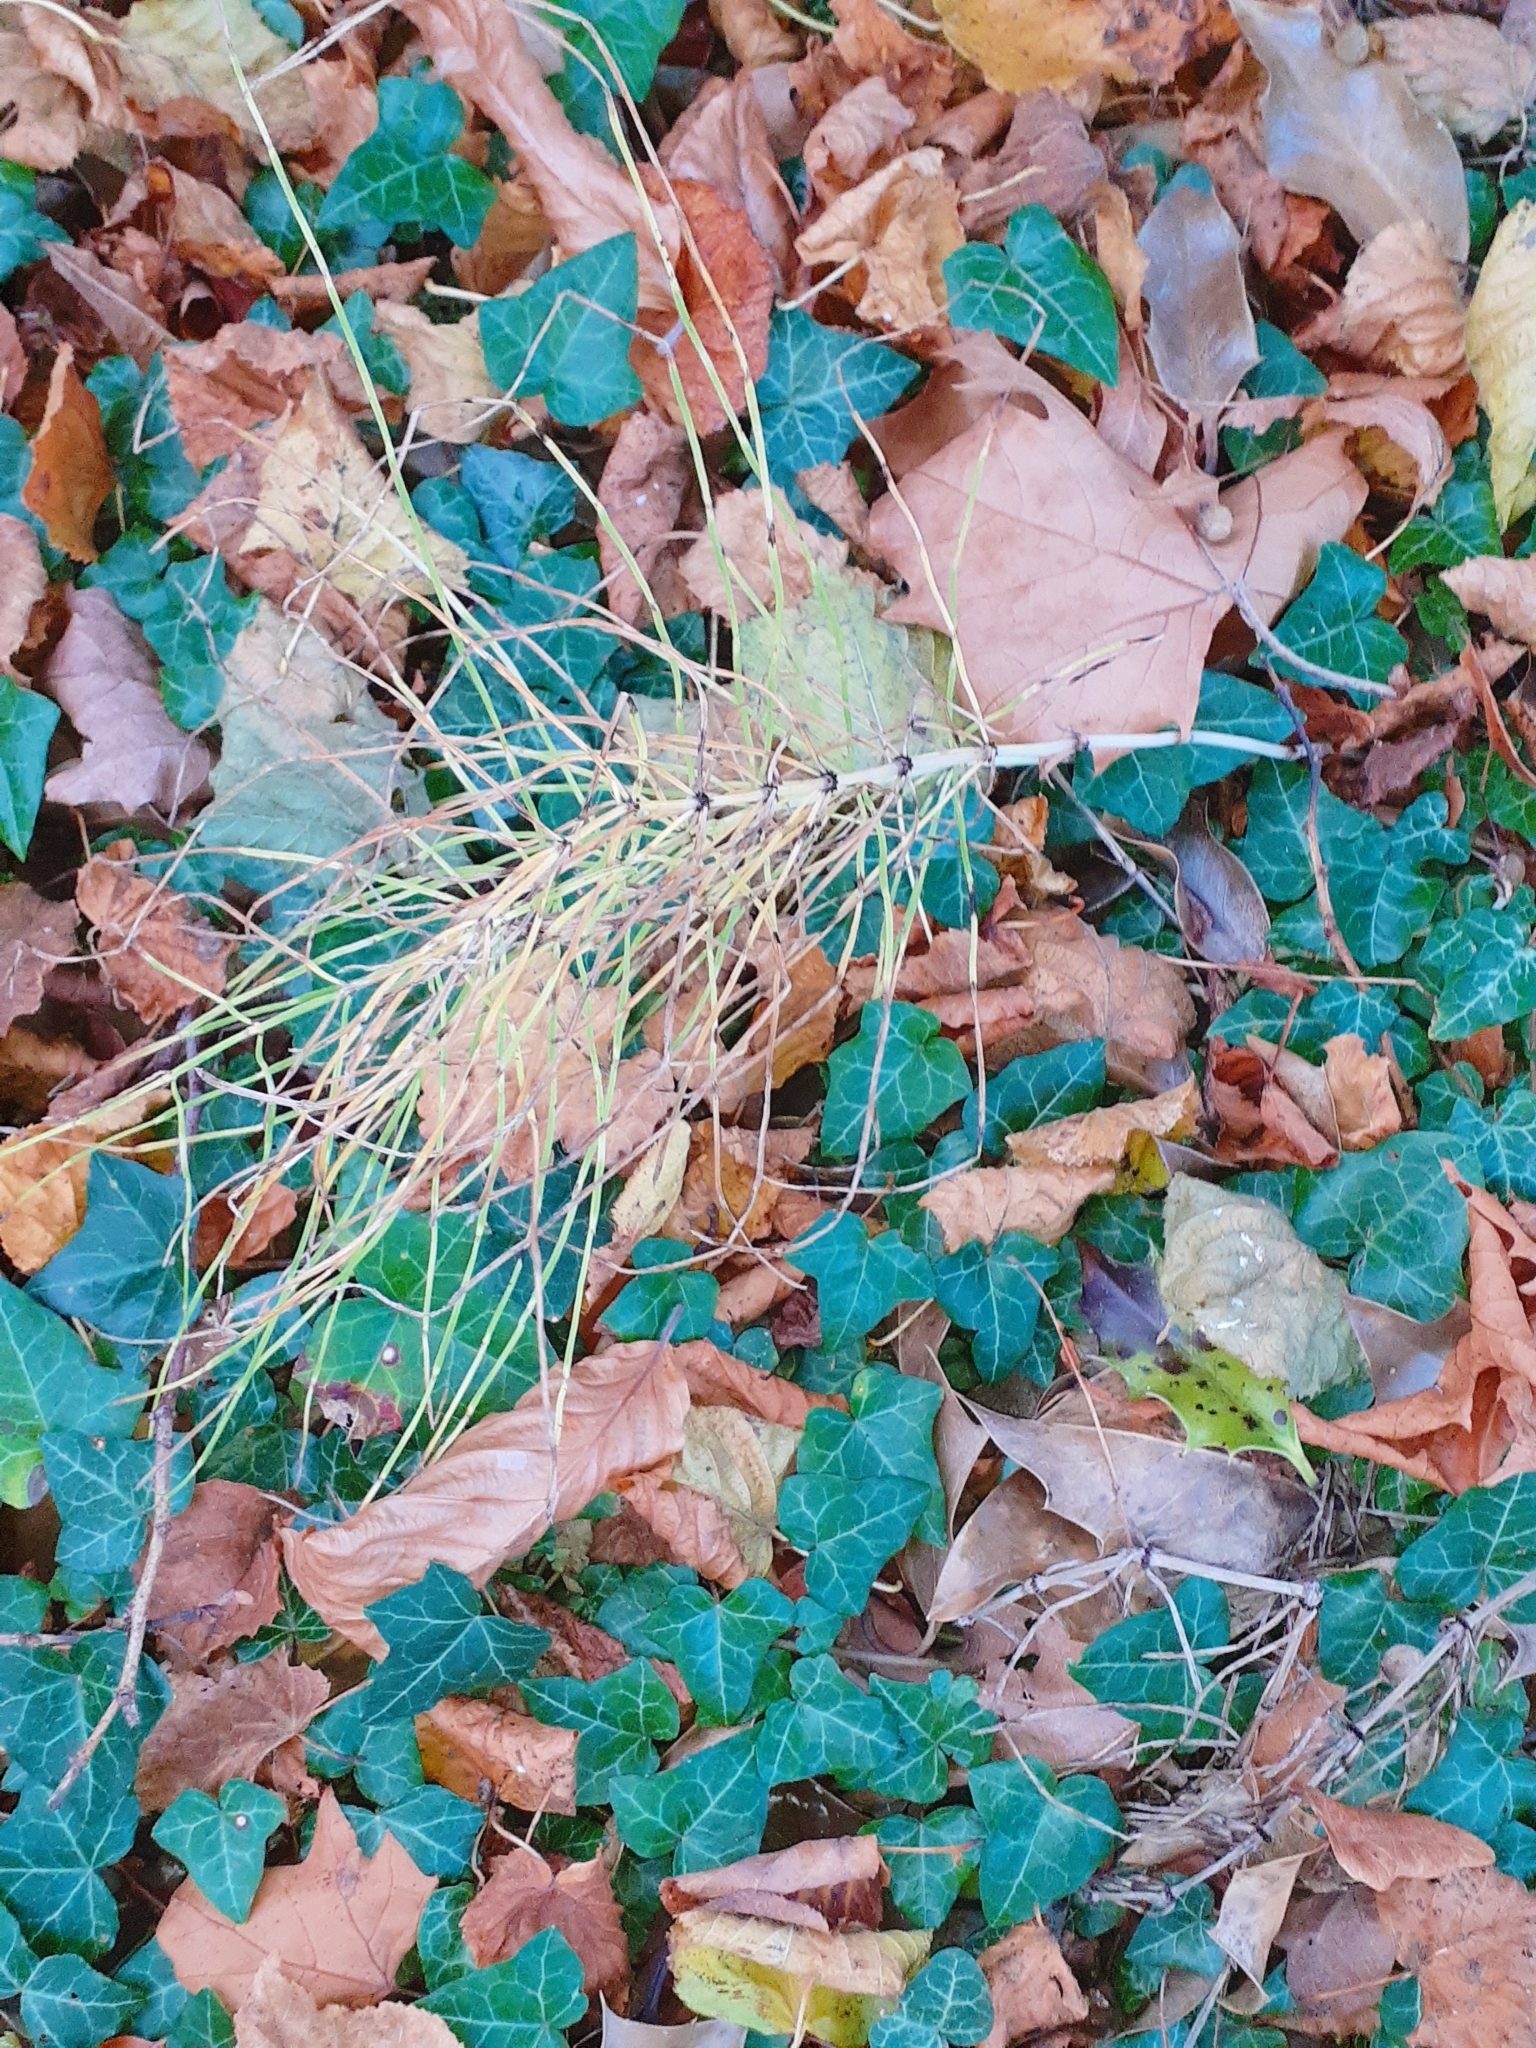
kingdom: Plantae
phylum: Tracheophyta
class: Polypodiopsida
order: Equisetales
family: Equisetaceae
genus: Equisetum
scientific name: Equisetum arvense
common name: Field horsetail
